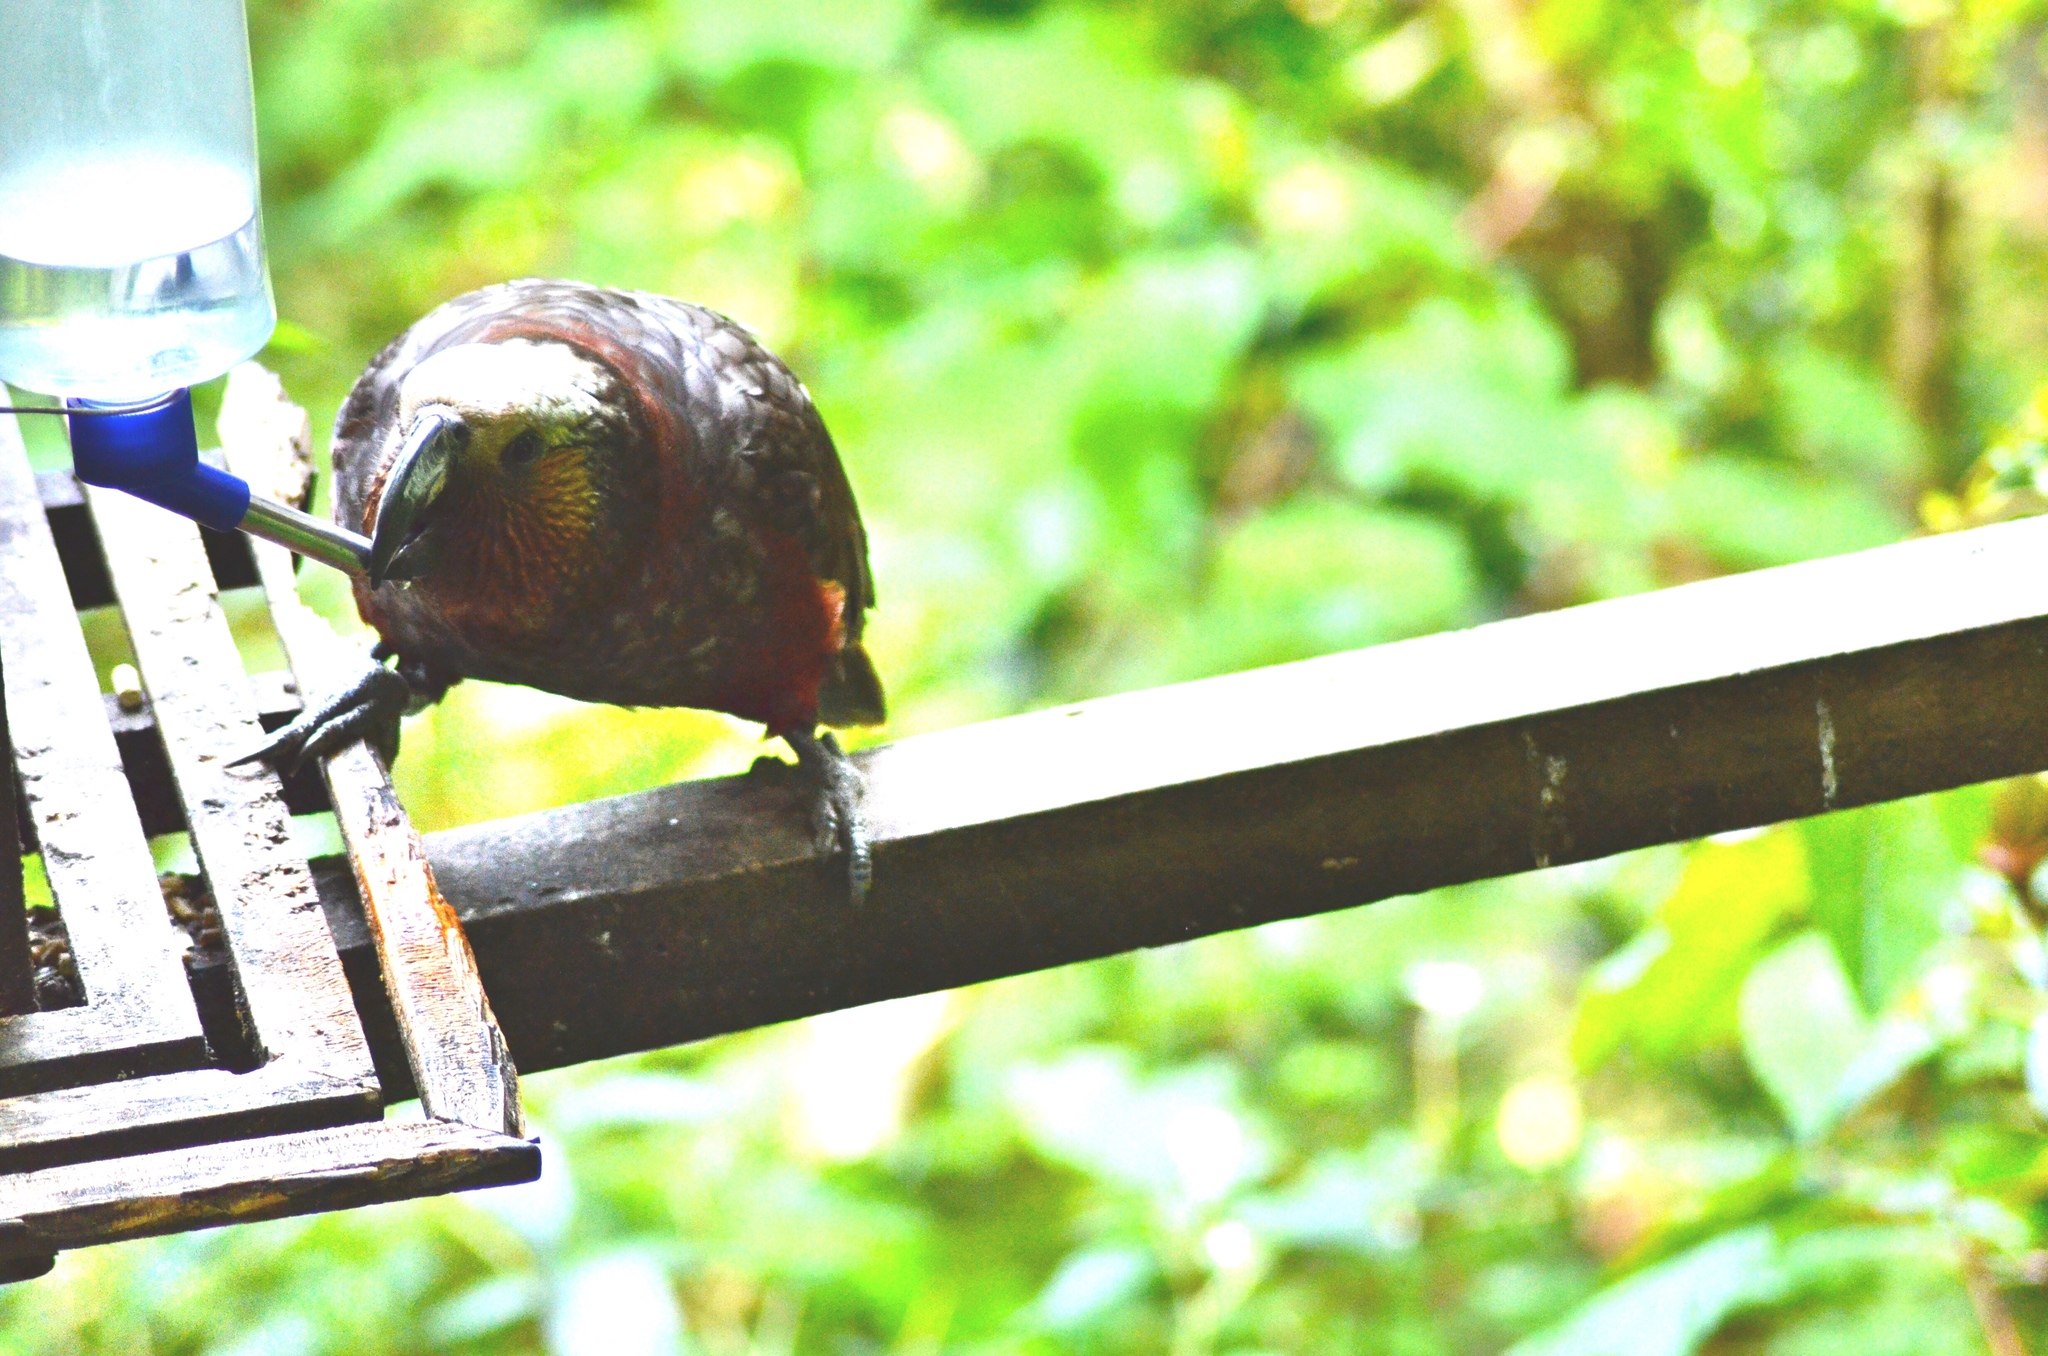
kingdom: Animalia
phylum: Chordata
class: Aves
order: Psittaciformes
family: Psittacidae
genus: Nestor
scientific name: Nestor meridionalis
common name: New zealand kaka
